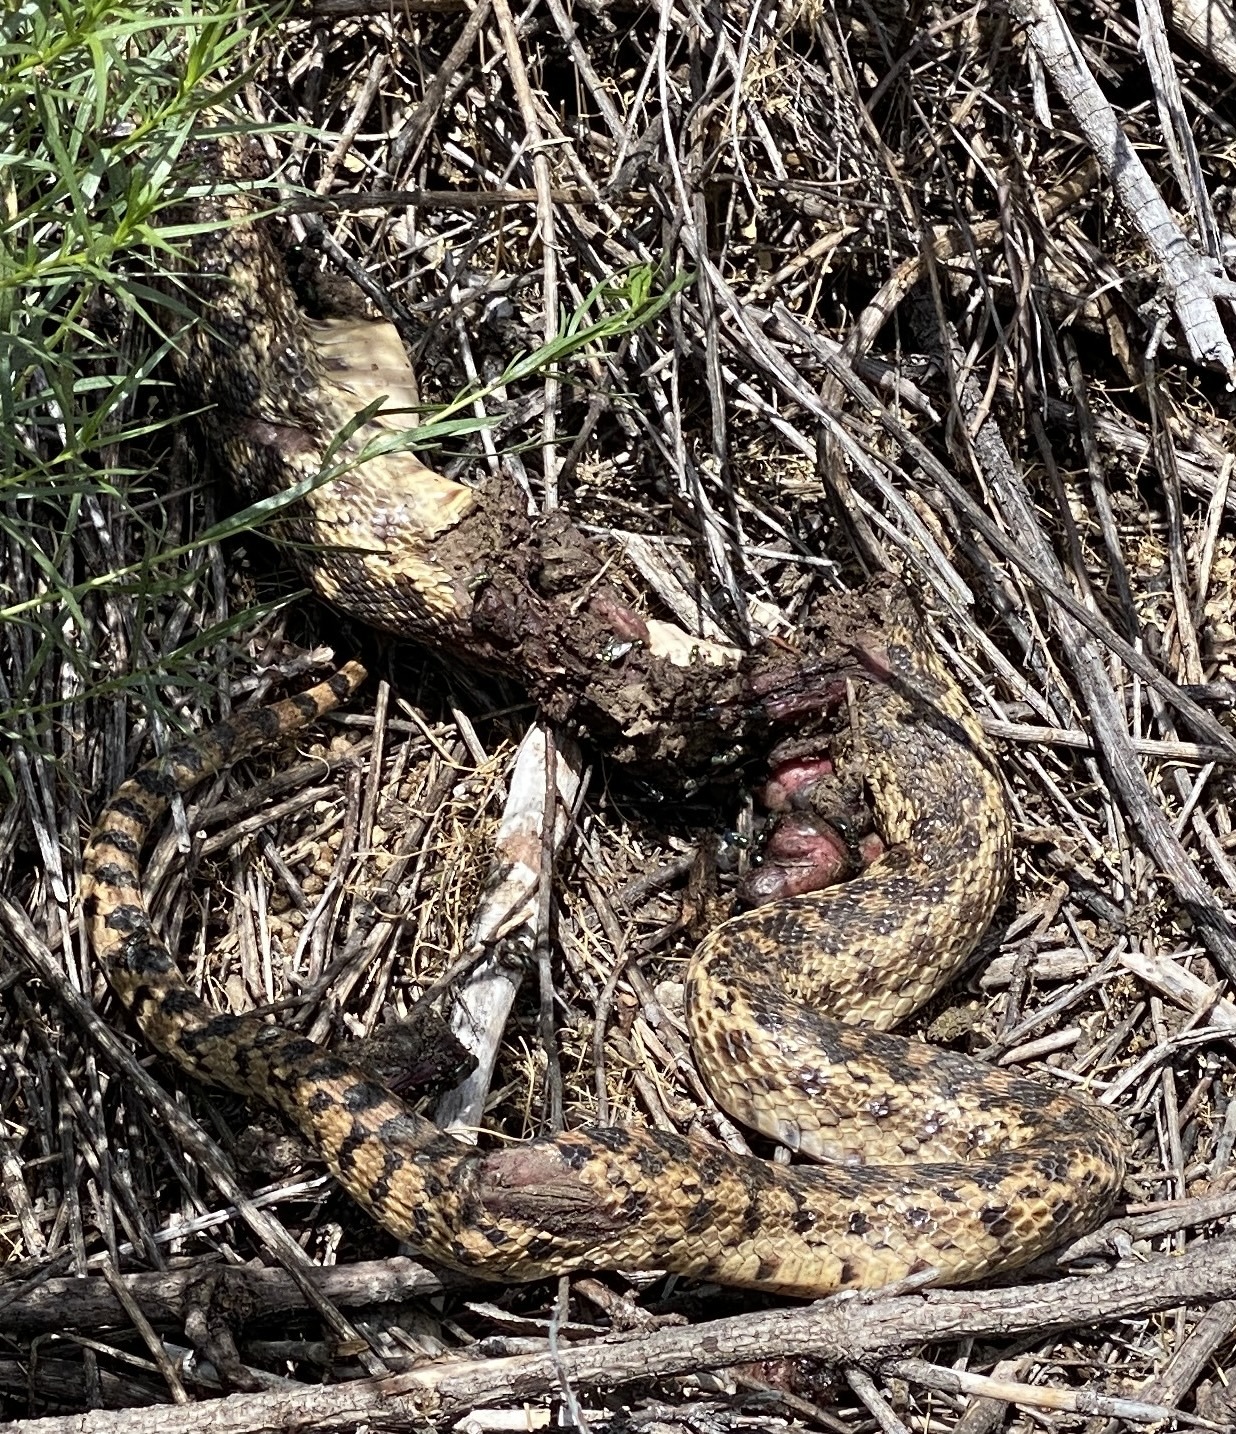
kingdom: Animalia
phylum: Chordata
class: Squamata
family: Colubridae
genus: Pituophis
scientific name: Pituophis catenifer
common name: Gopher snake
